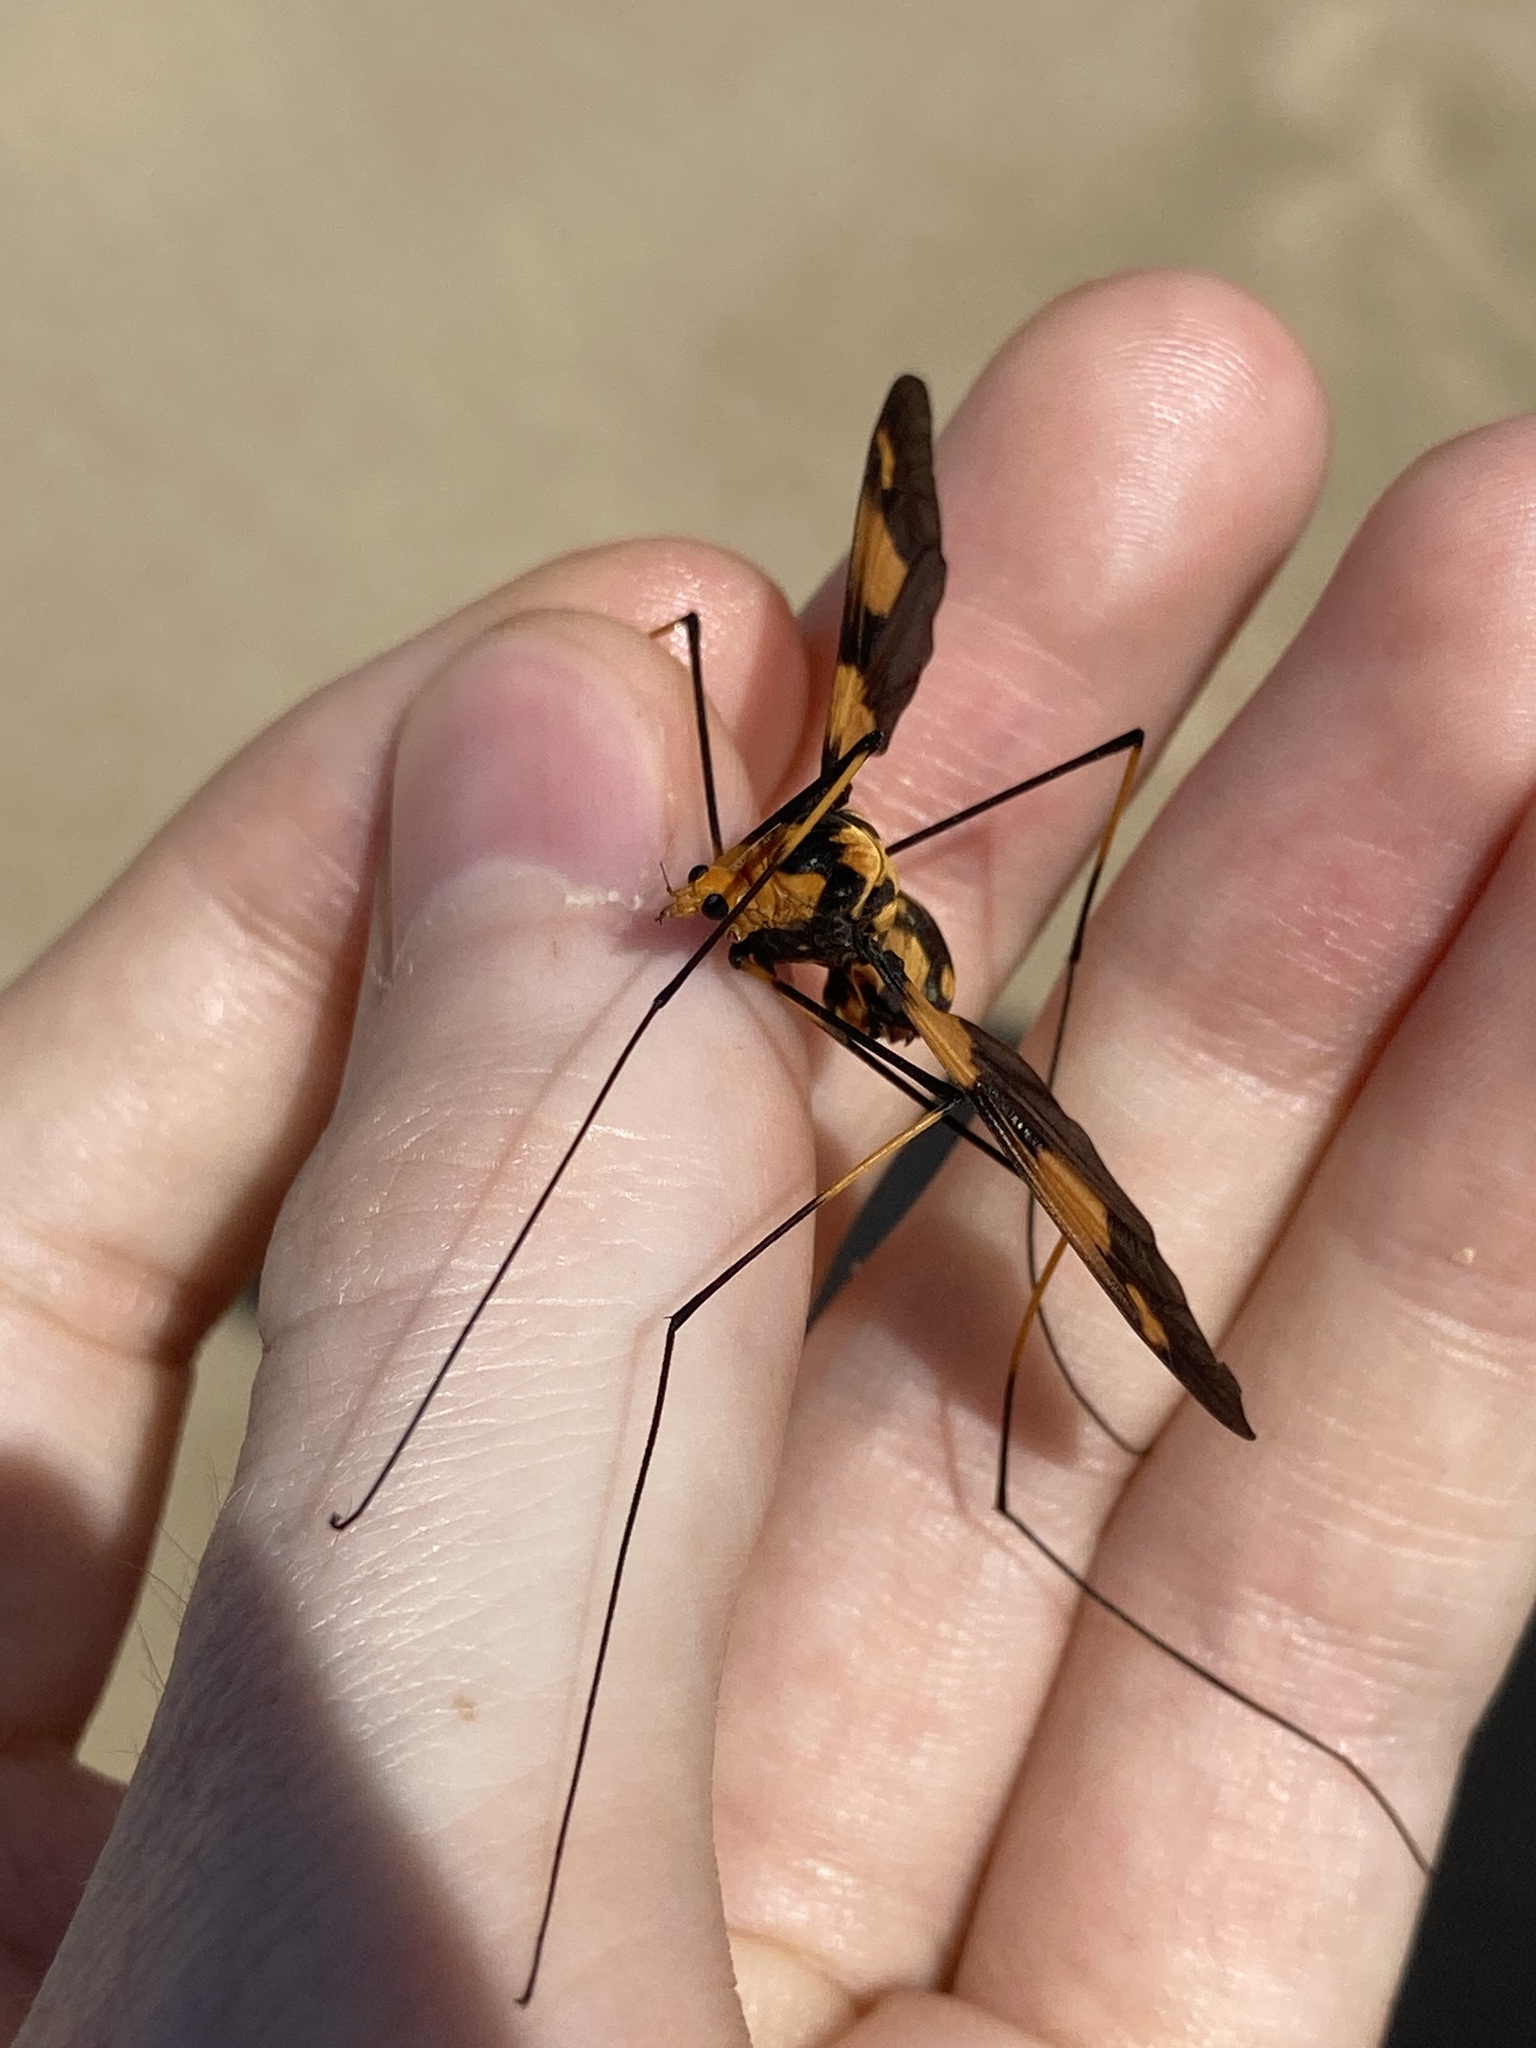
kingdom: Animalia
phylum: Arthropoda
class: Insecta
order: Diptera
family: Tipulidae
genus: Leptotarsus
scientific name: Leptotarsus ducalis
